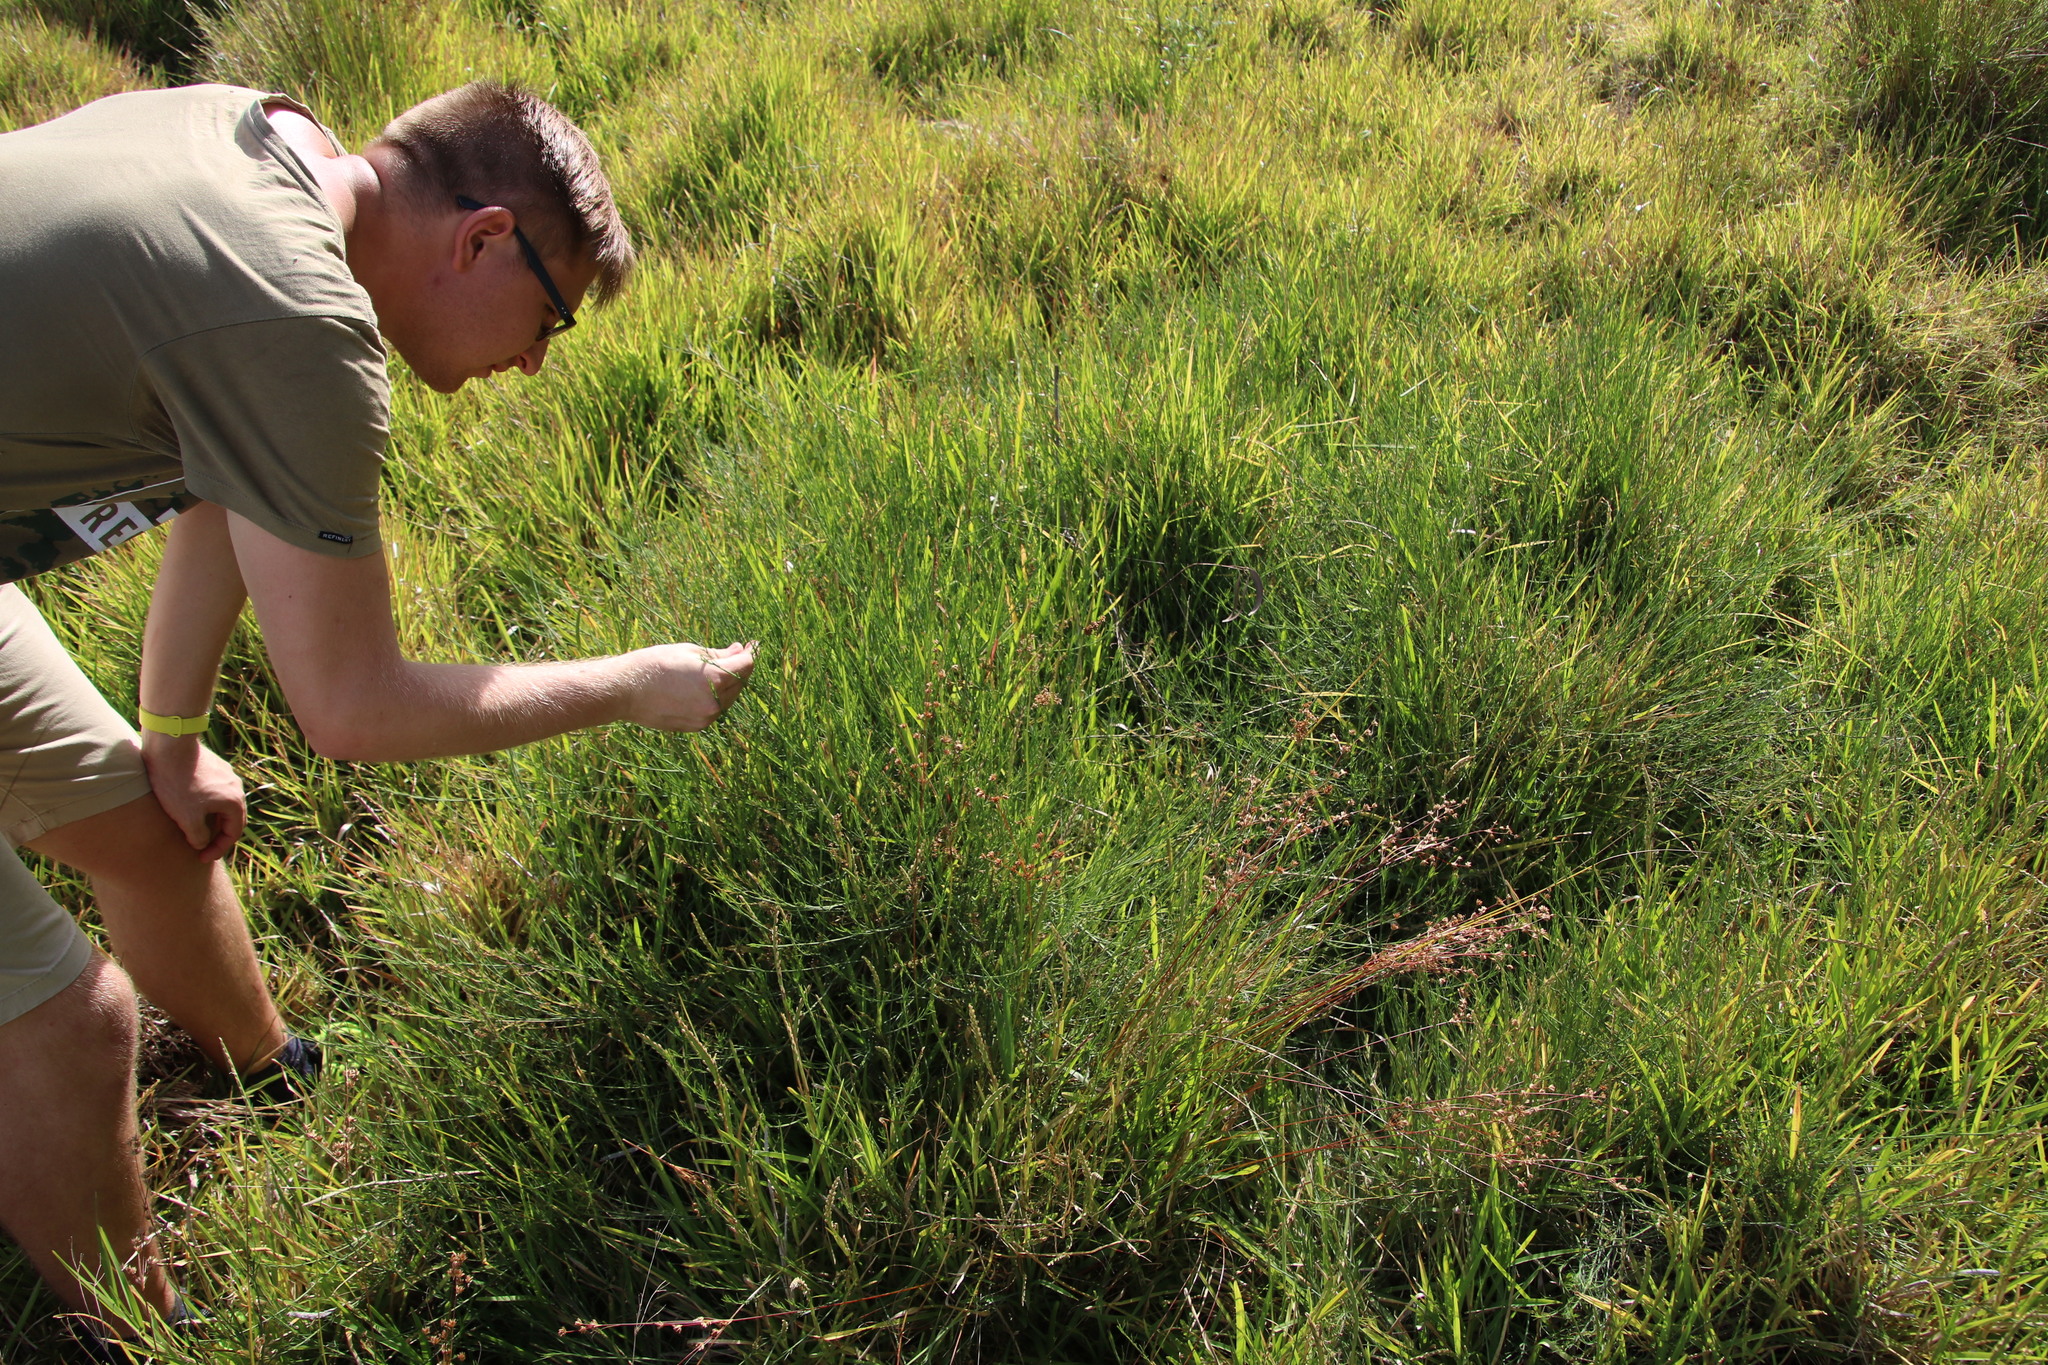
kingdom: Plantae
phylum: Tracheophyta
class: Magnoliopsida
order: Fabales
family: Fabaceae
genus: Psoralea
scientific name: Psoralea fascicularis
